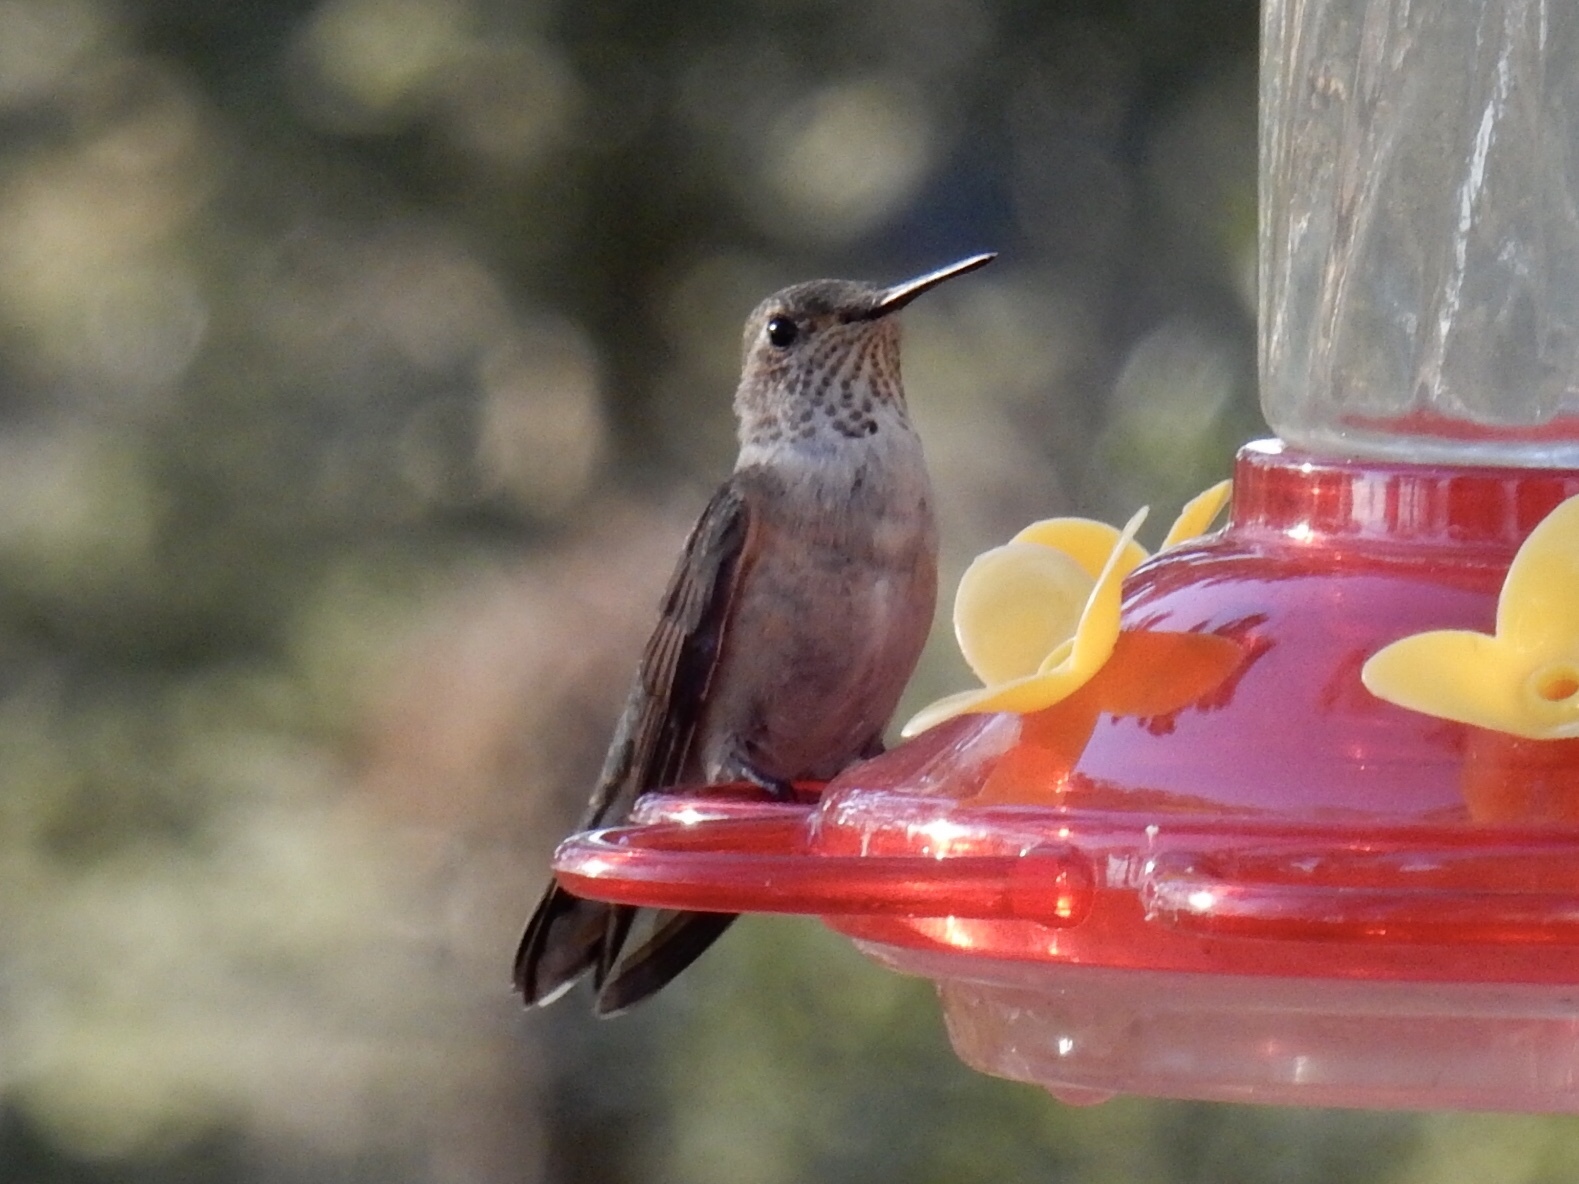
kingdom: Animalia
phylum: Chordata
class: Aves
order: Apodiformes
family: Trochilidae
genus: Selasphorus
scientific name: Selasphorus platycercus
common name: Broad-tailed hummingbird
